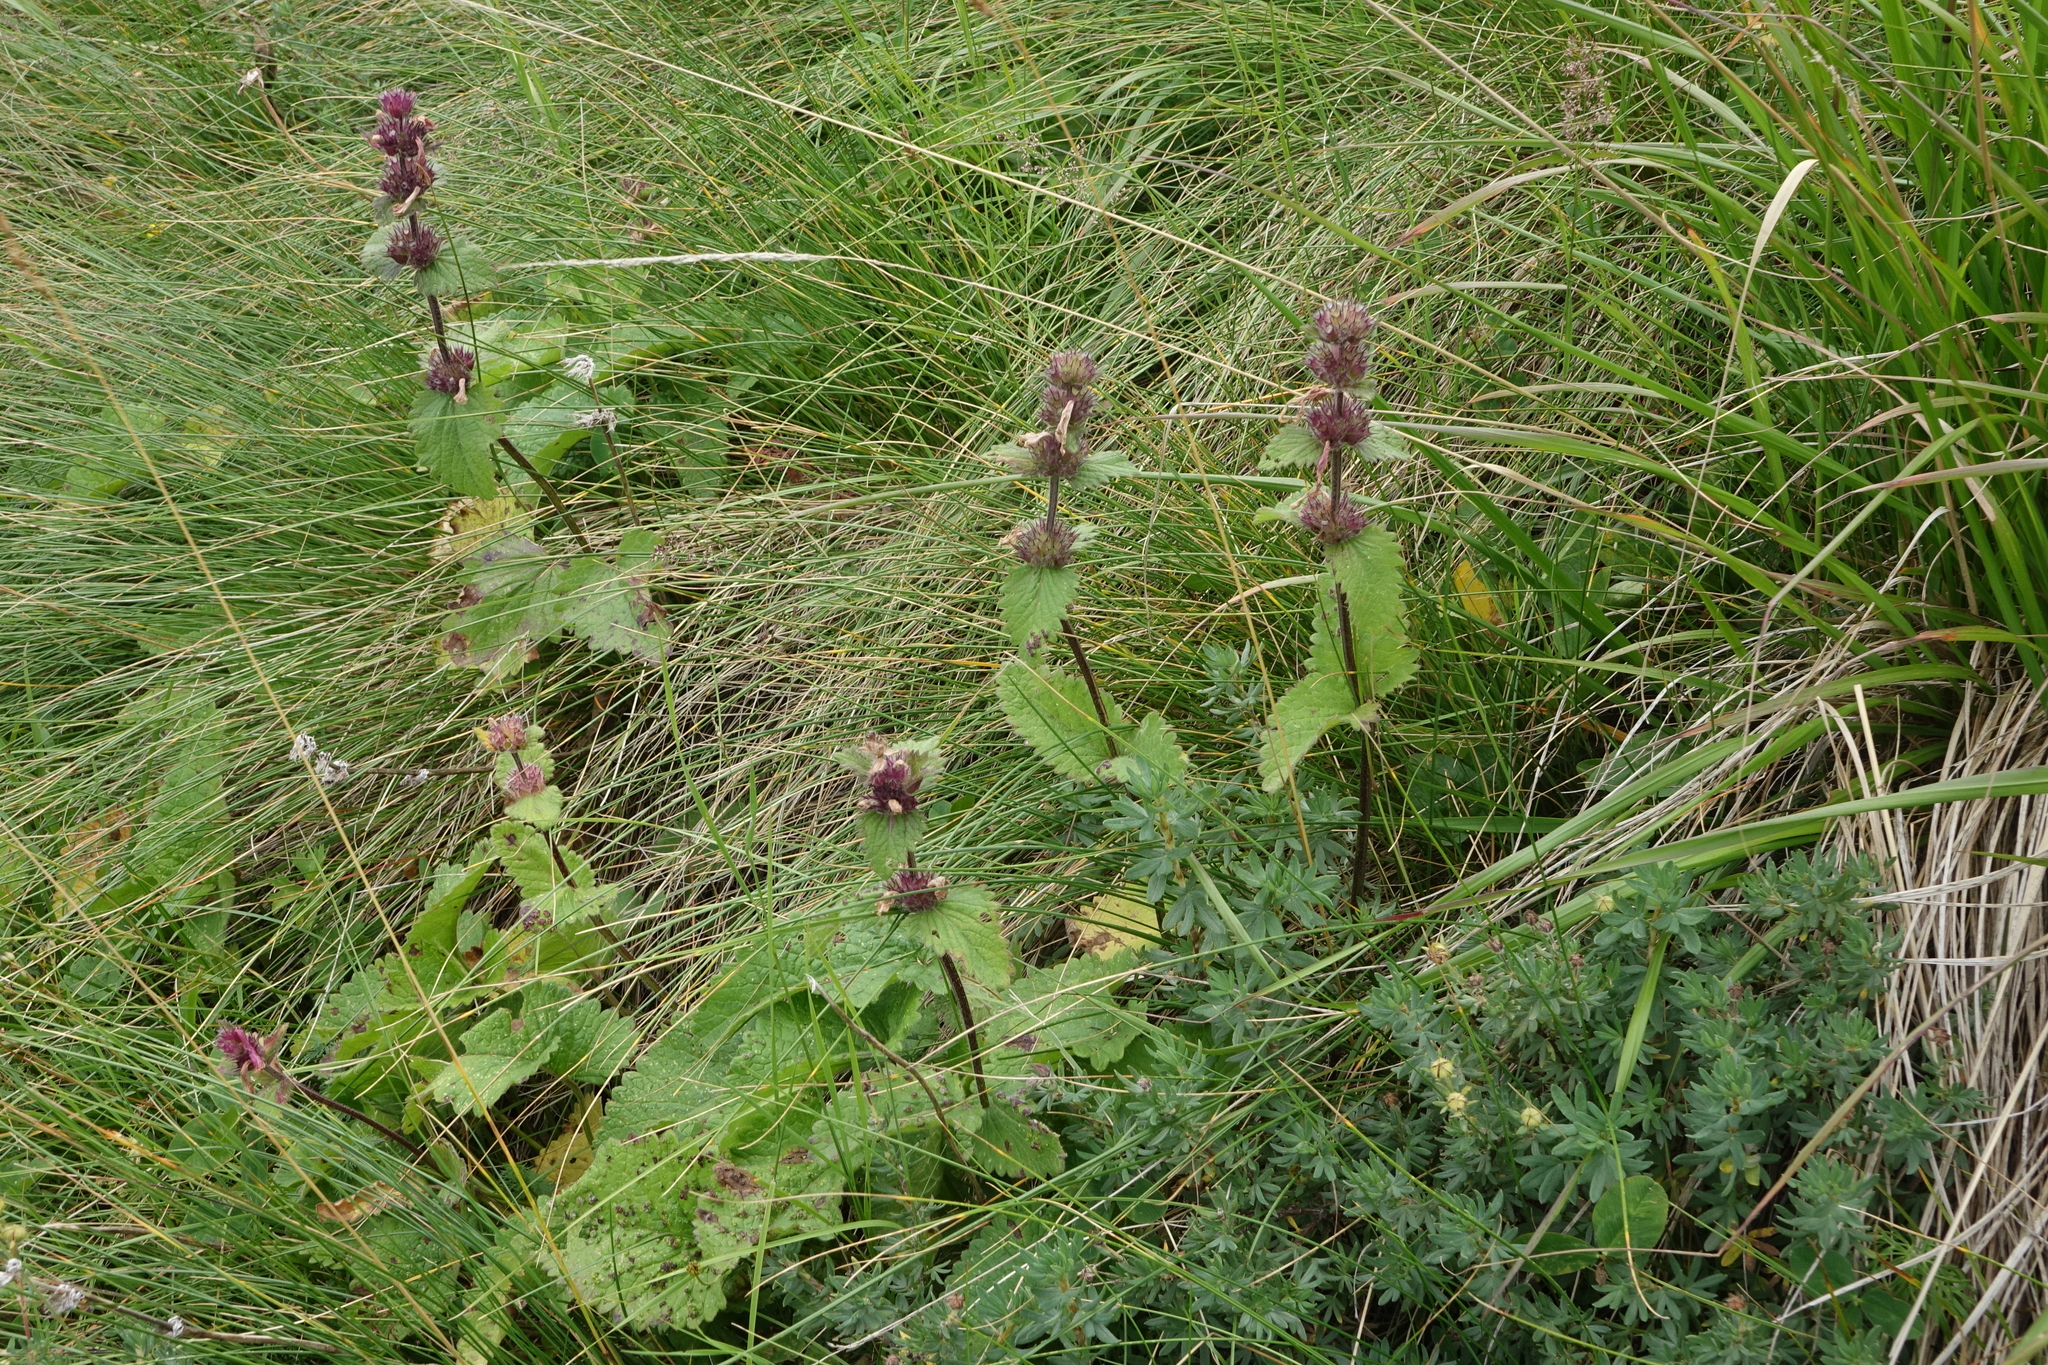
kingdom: Plantae
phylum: Tracheophyta
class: Magnoliopsida
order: Lamiales
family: Lamiaceae
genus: Betonica
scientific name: Betonica macrantha
